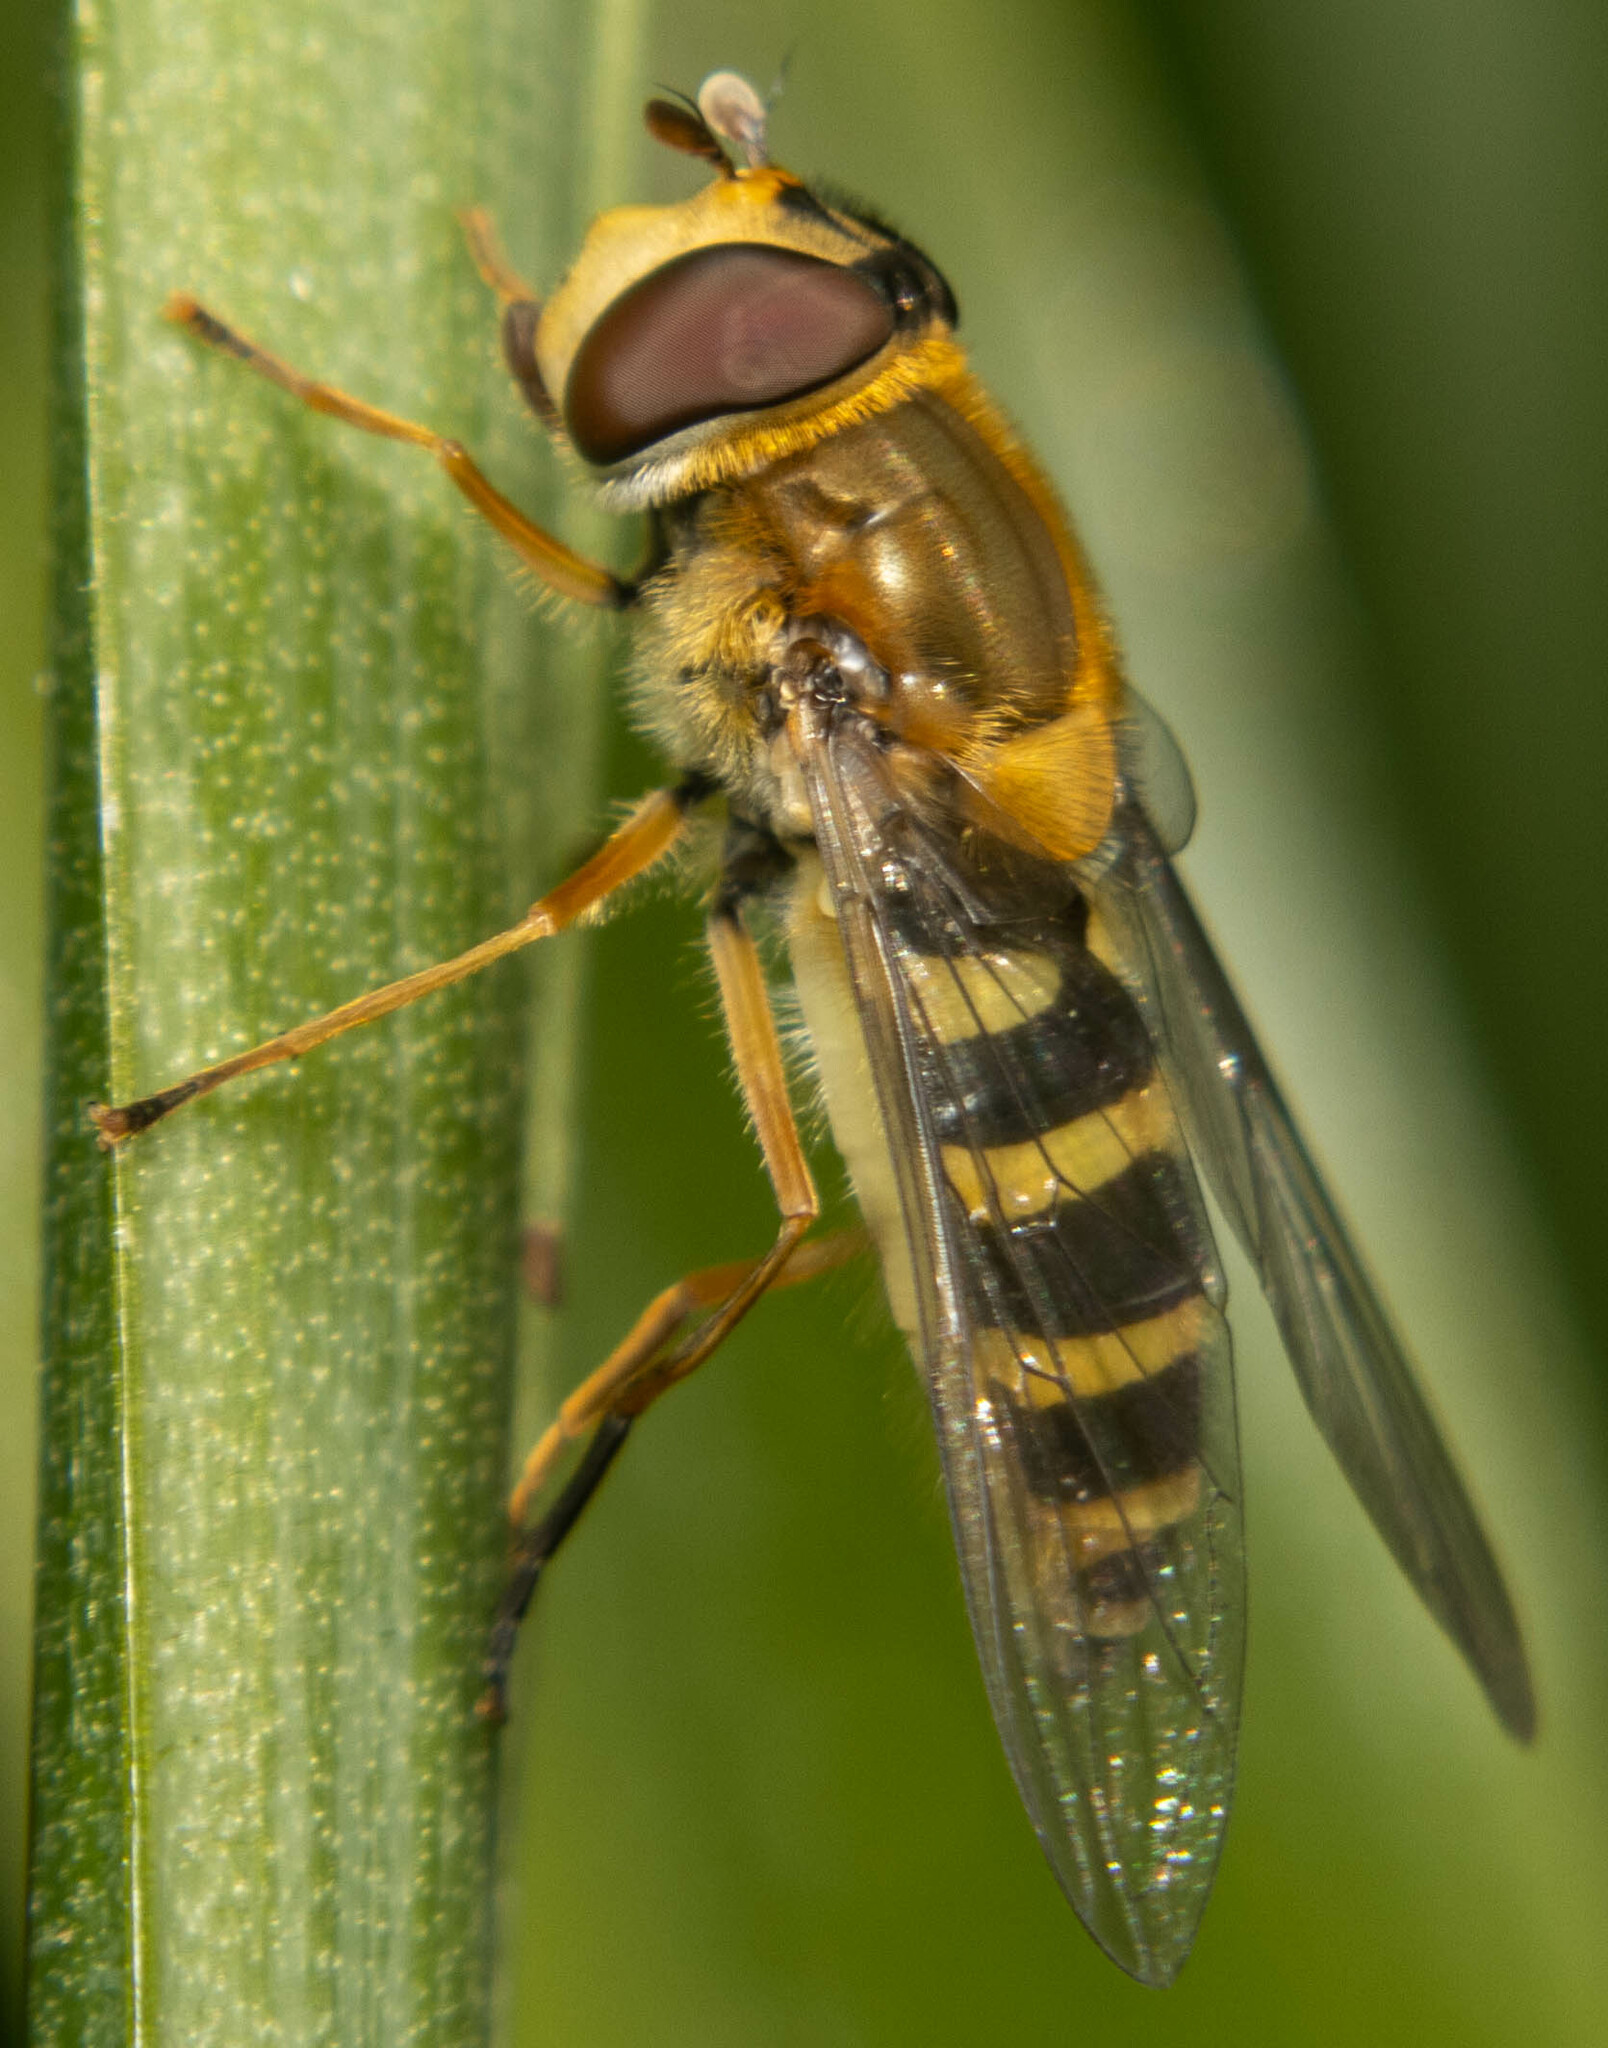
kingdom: Animalia
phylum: Arthropoda
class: Insecta
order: Diptera
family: Syrphidae
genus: Syrphus
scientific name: Syrphus ribesii
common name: Common flower fly
